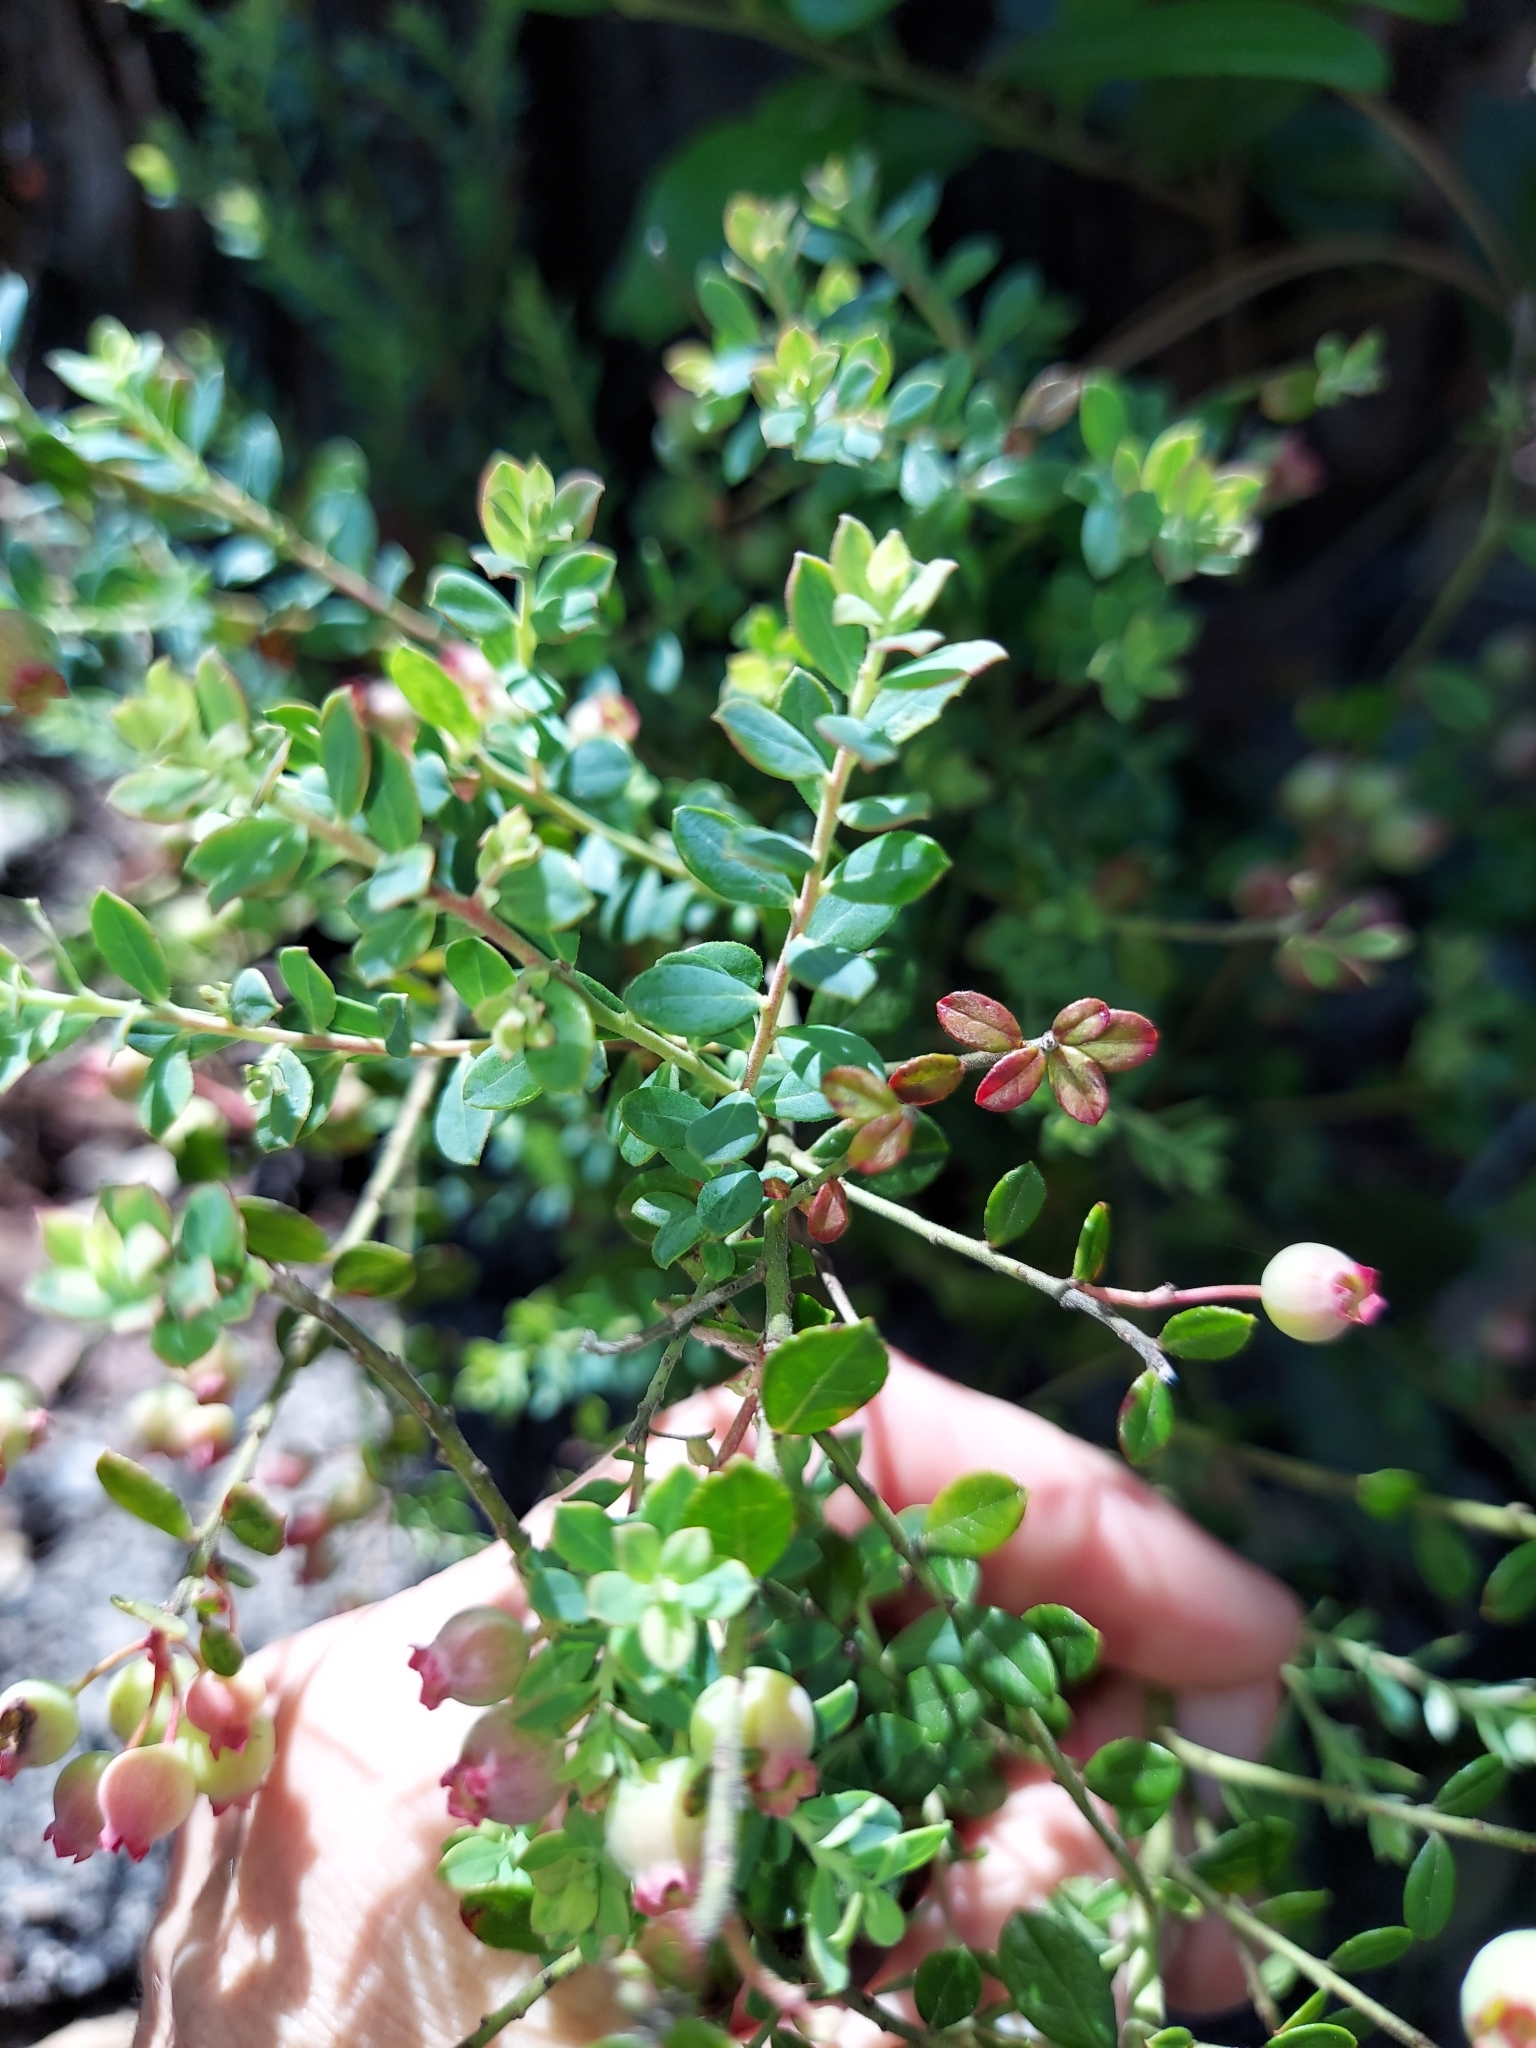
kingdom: Plantae
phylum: Tracheophyta
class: Magnoliopsida
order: Ericales
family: Ericaceae
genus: Vaccinium
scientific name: Vaccinium darrowii
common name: Darrow's blueberry
